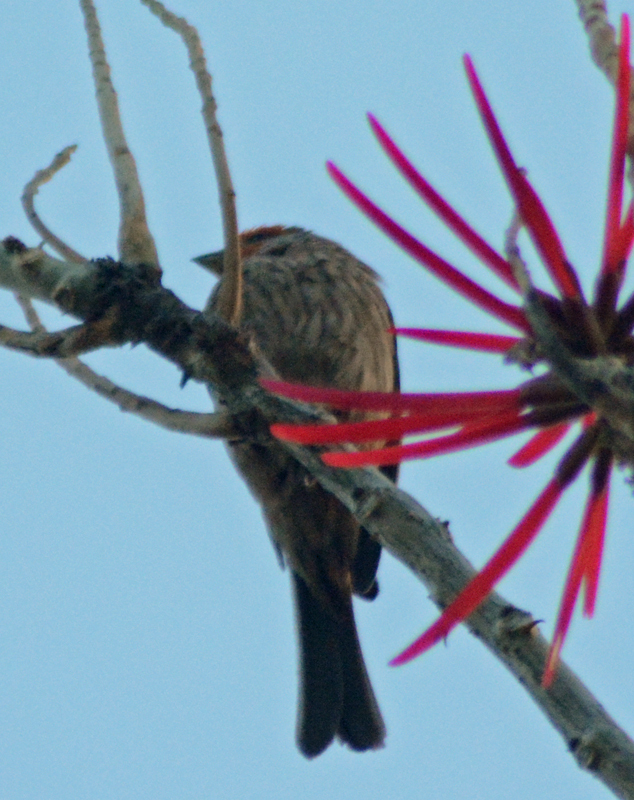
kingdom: Animalia
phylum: Chordata
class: Aves
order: Passeriformes
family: Fringillidae
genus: Haemorhous
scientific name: Haemorhous mexicanus
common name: House finch
